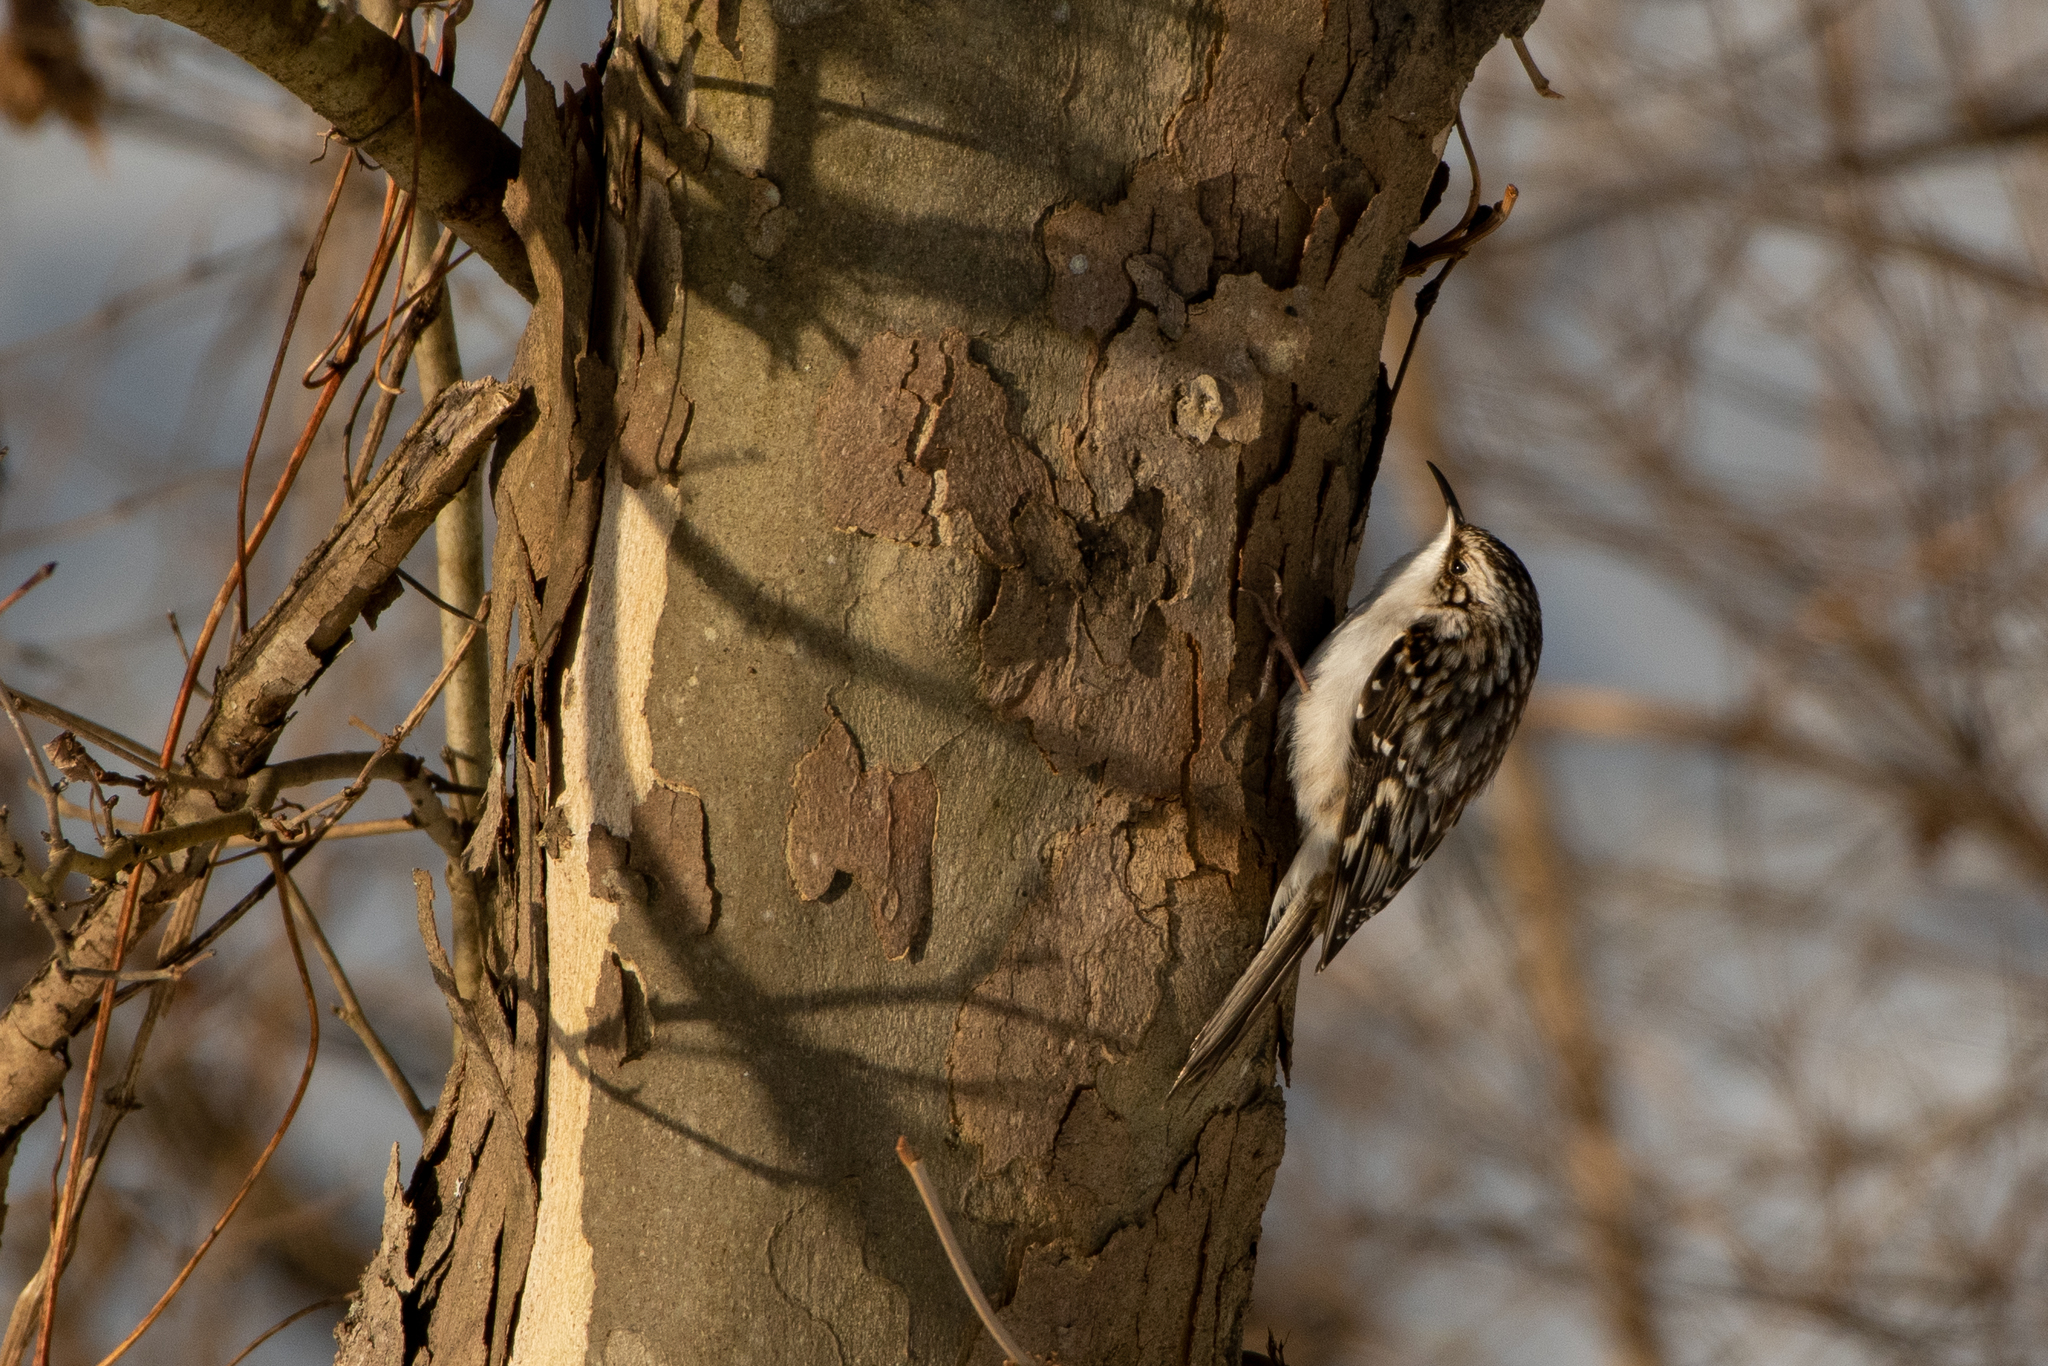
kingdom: Animalia
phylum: Chordata
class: Aves
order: Passeriformes
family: Certhiidae
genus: Certhia
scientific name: Certhia americana
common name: Brown creeper
